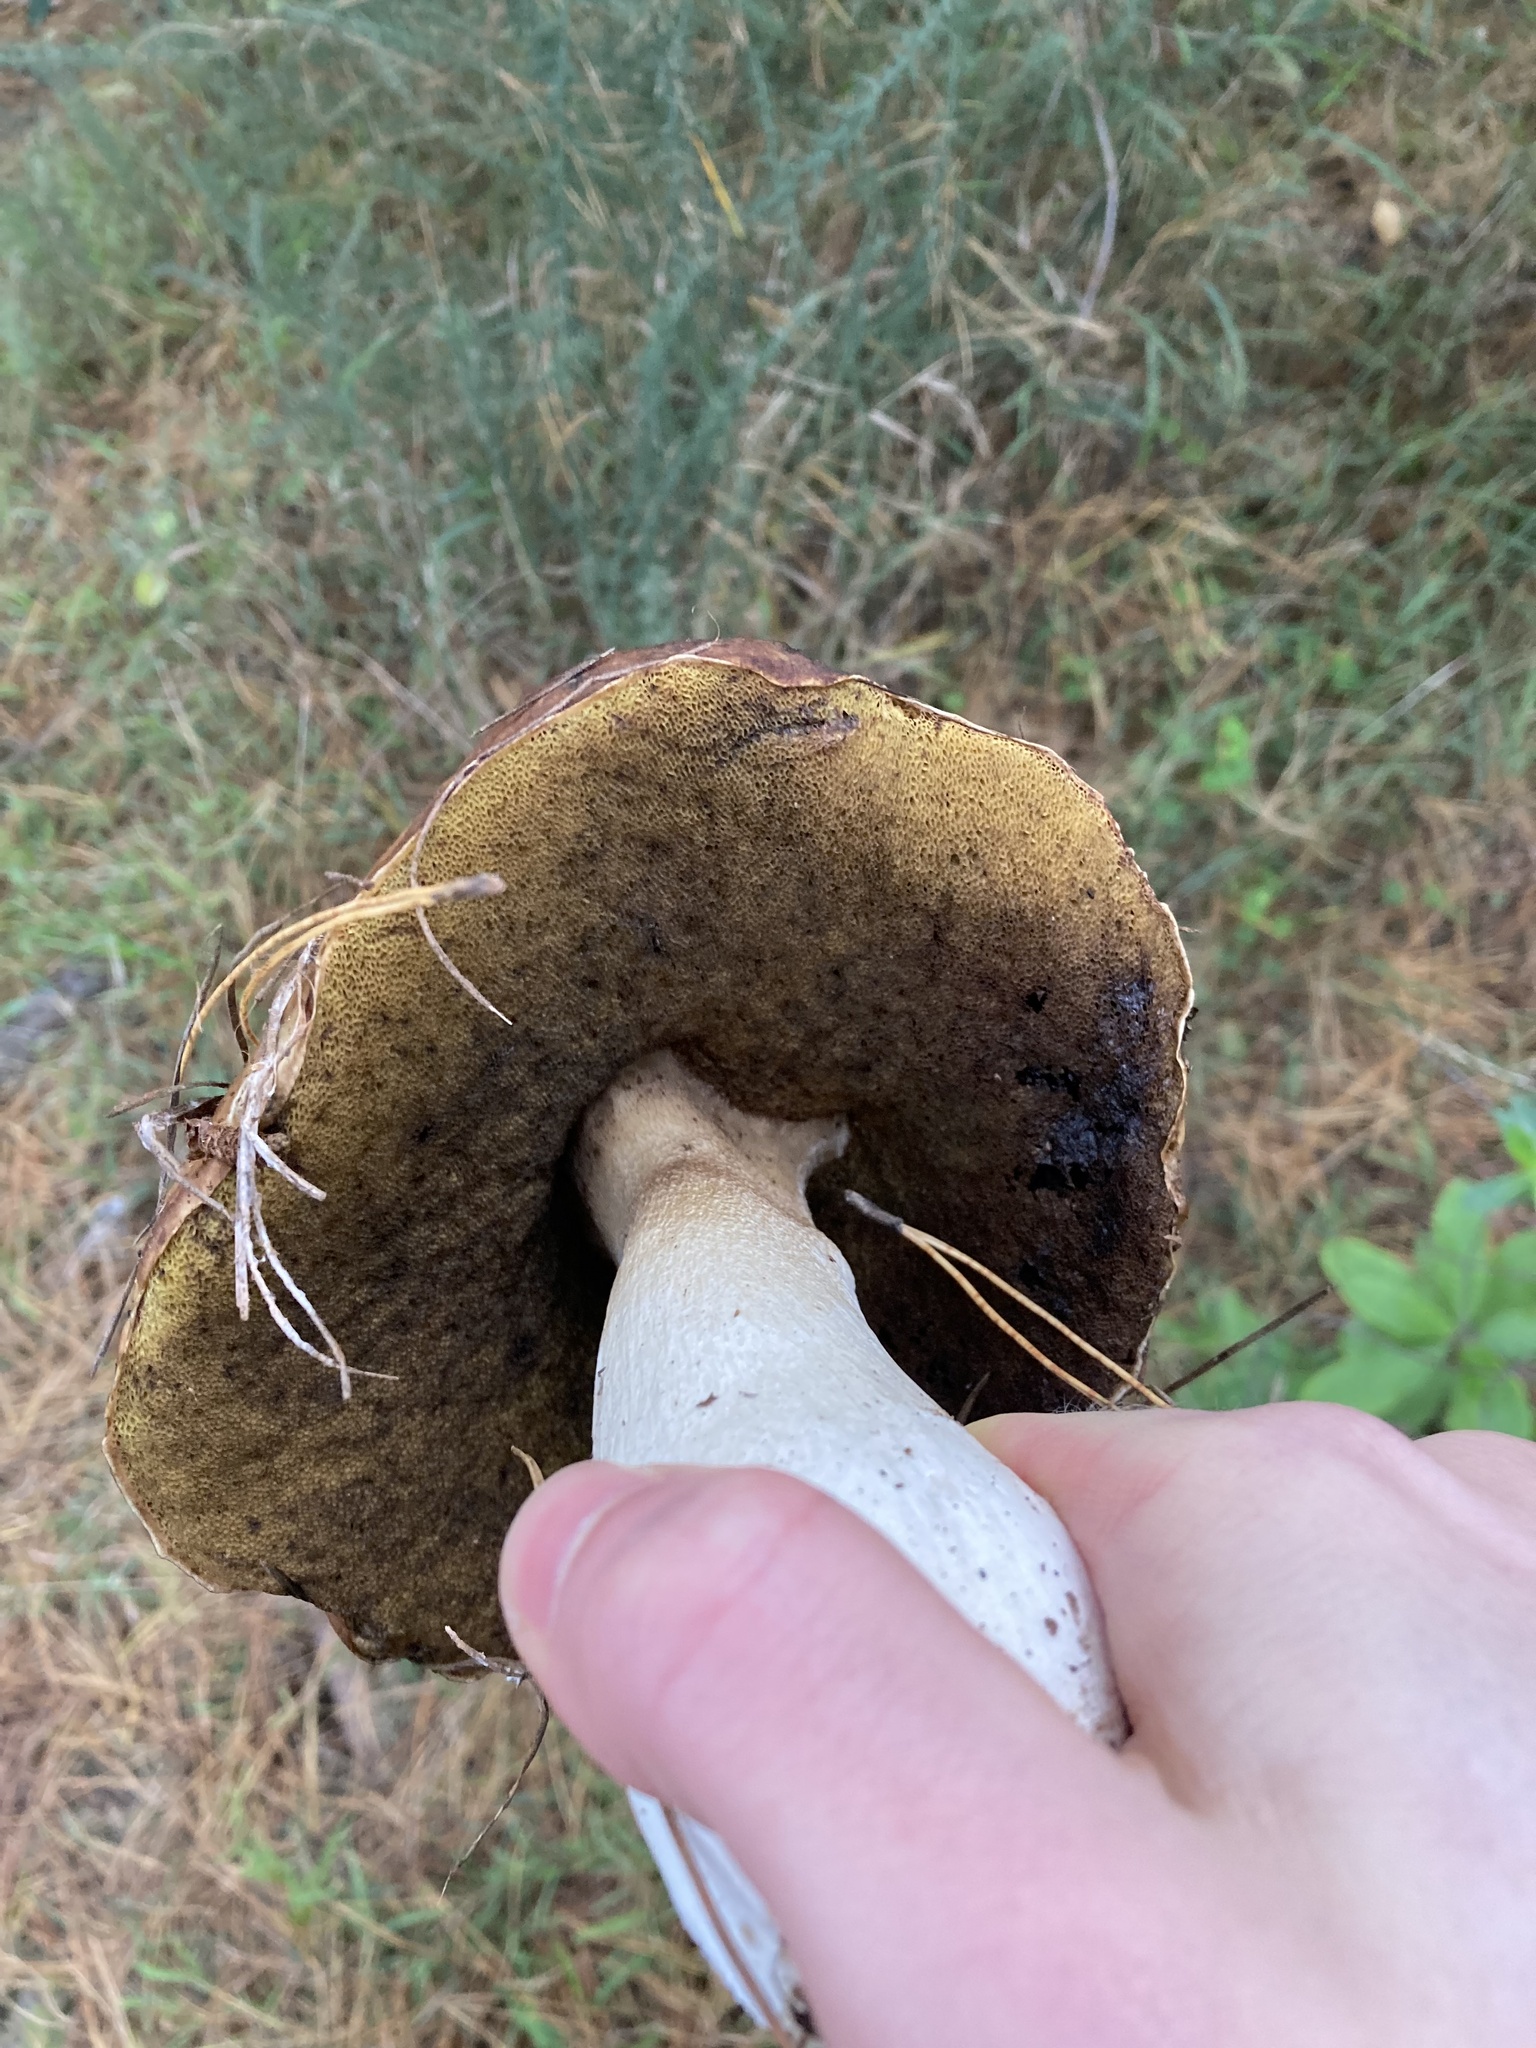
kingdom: Fungi
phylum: Basidiomycota
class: Agaricomycetes
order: Boletales
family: Boletaceae
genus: Boletus
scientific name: Boletus edulis
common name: Cep
